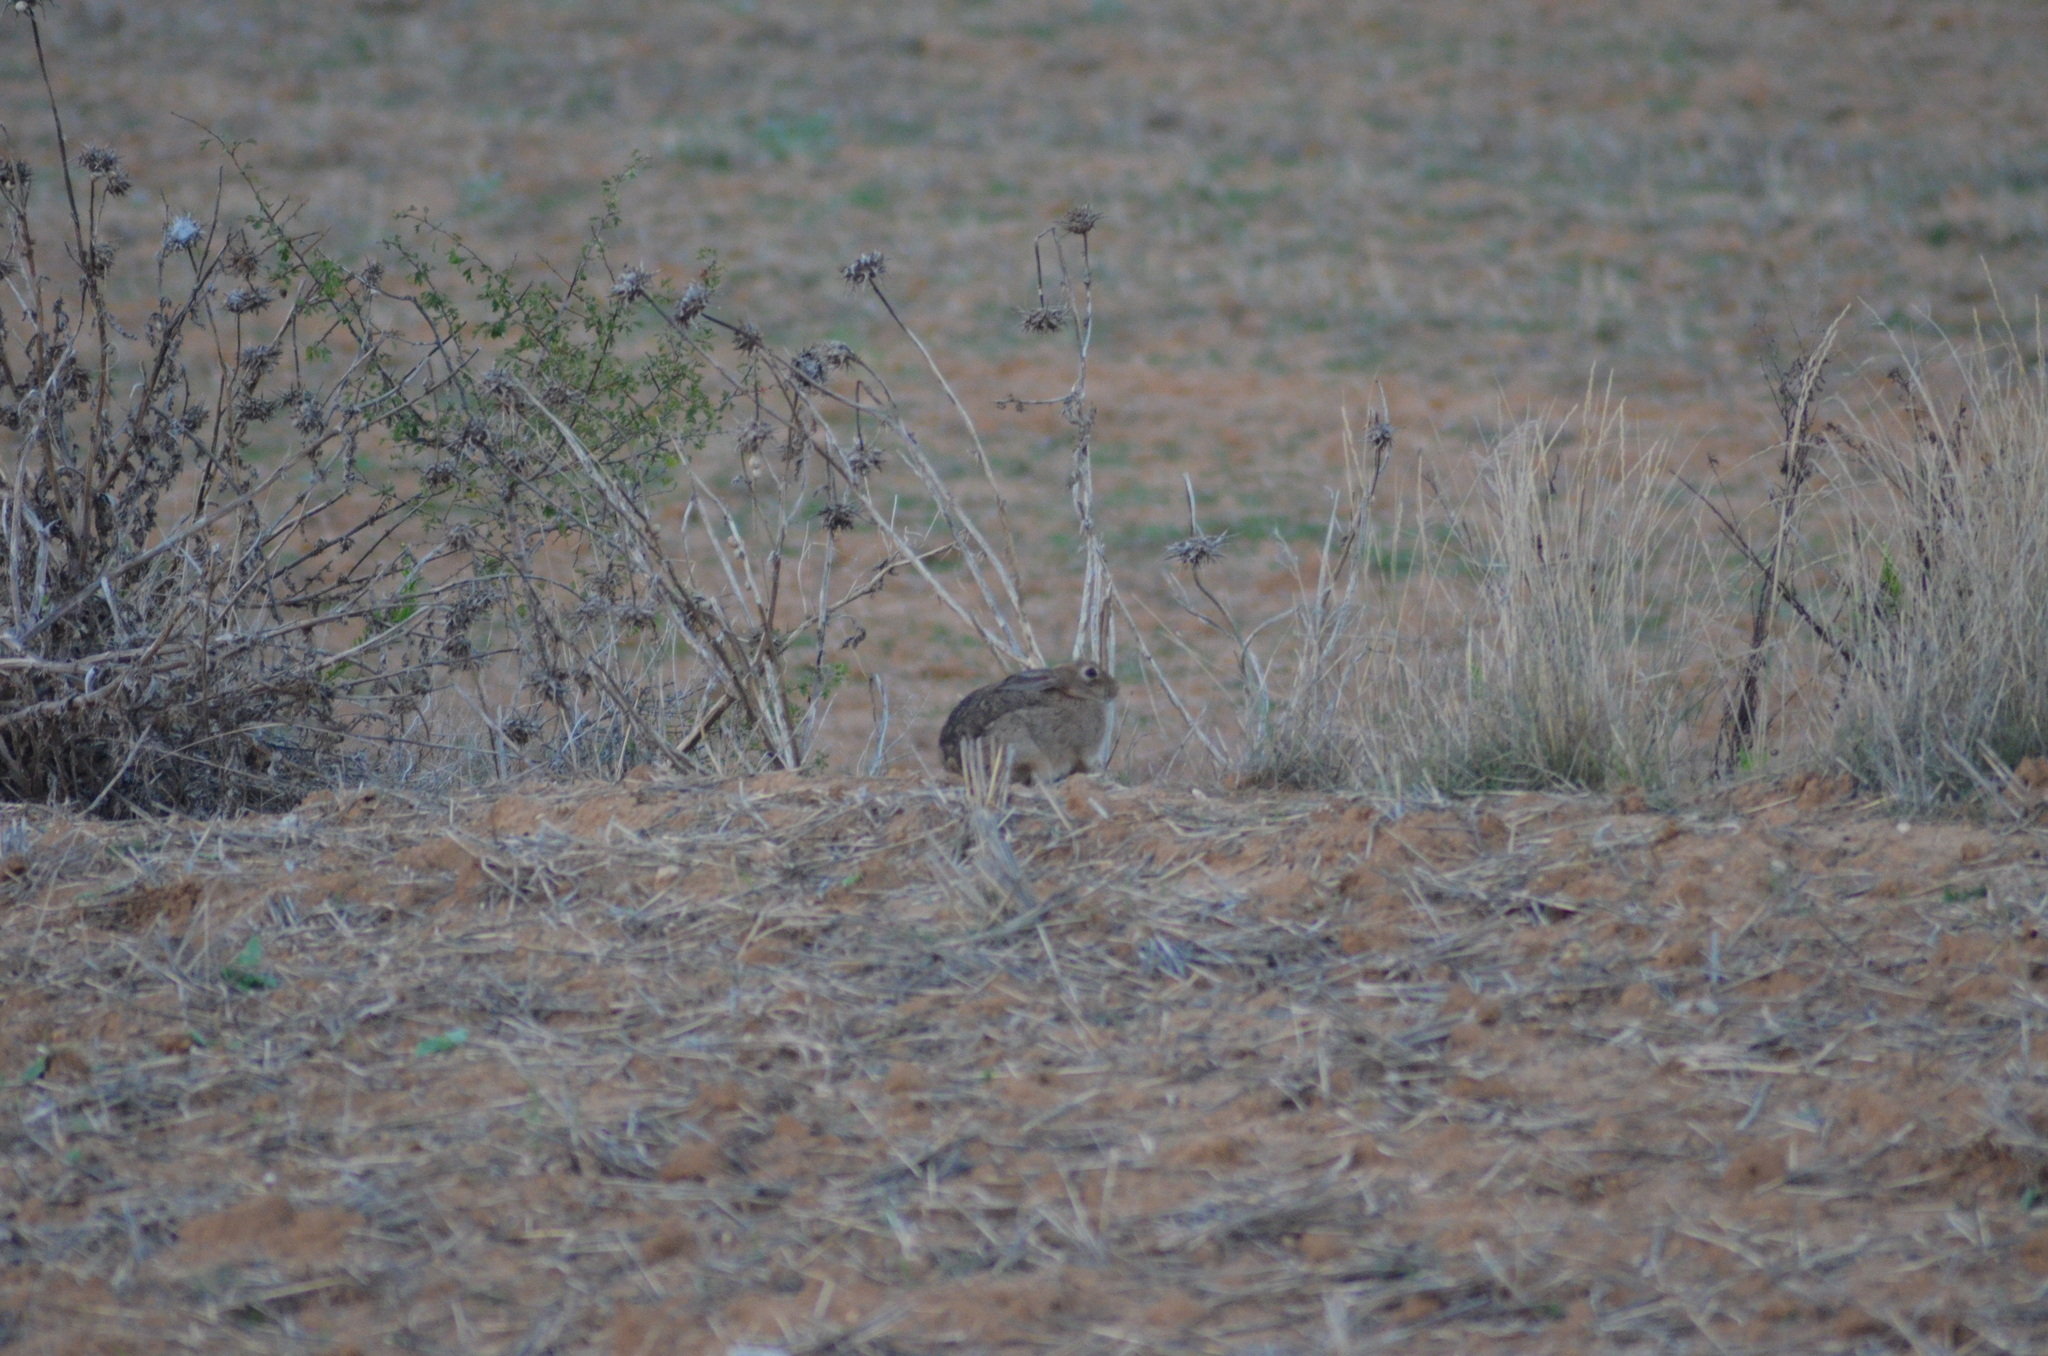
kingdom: Animalia
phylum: Chordata
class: Mammalia
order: Lagomorpha
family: Leporidae
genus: Oryctolagus
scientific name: Oryctolagus cuniculus
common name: European rabbit
